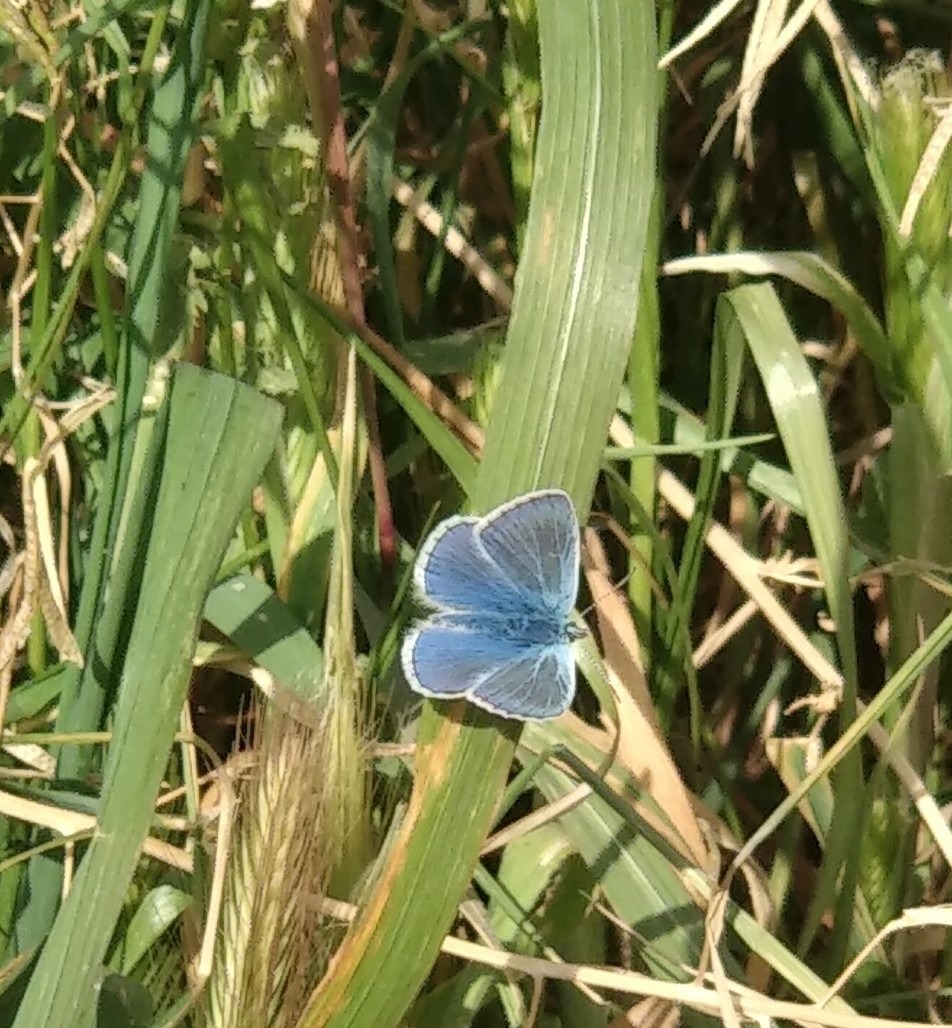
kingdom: Animalia
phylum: Arthropoda
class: Insecta
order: Lepidoptera
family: Lycaenidae
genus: Polyommatus
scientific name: Polyommatus icarus
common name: Common blue
